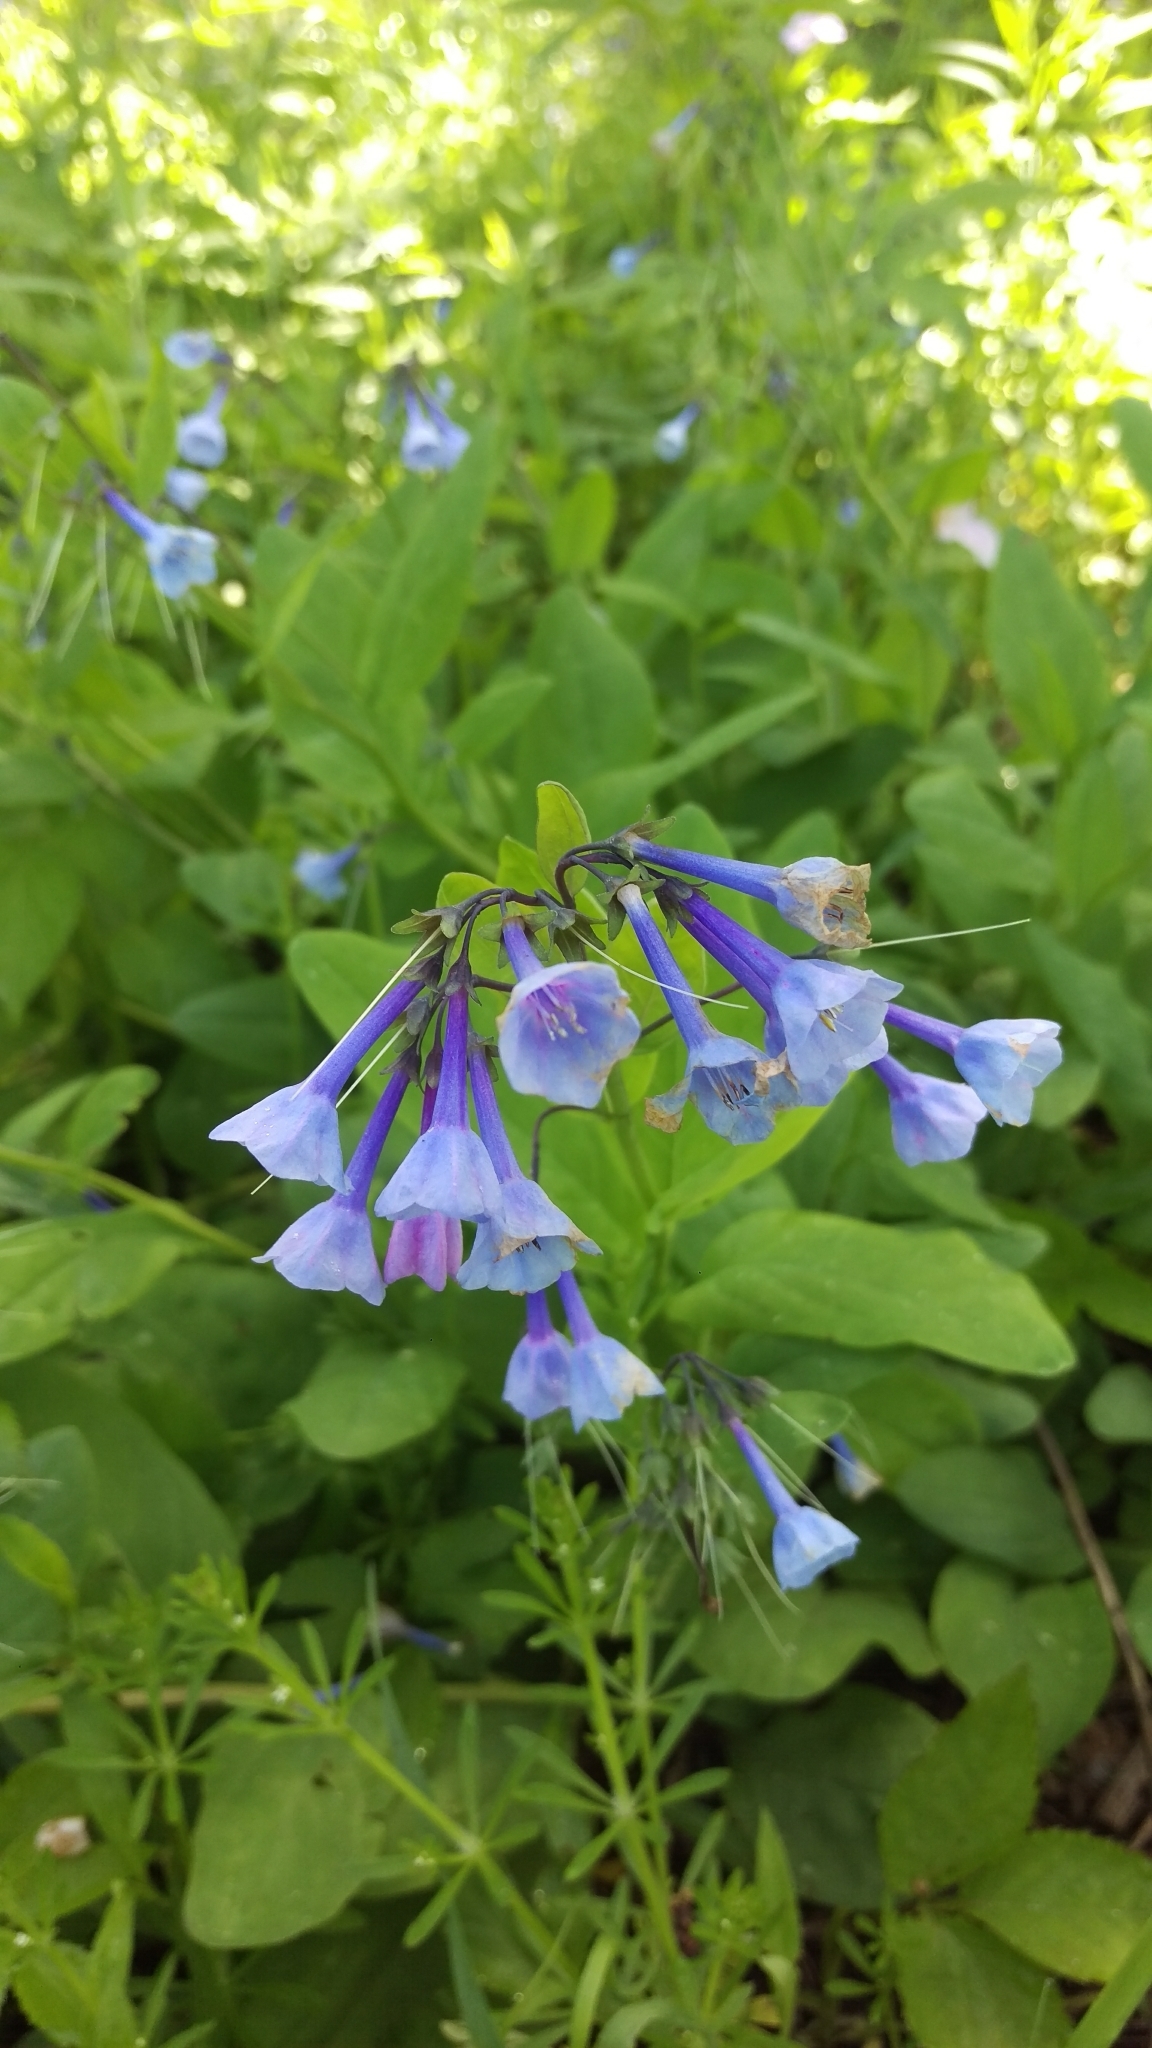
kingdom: Plantae
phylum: Tracheophyta
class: Magnoliopsida
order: Boraginales
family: Boraginaceae
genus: Mertensia
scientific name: Mertensia virginica
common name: Virginia bluebells
